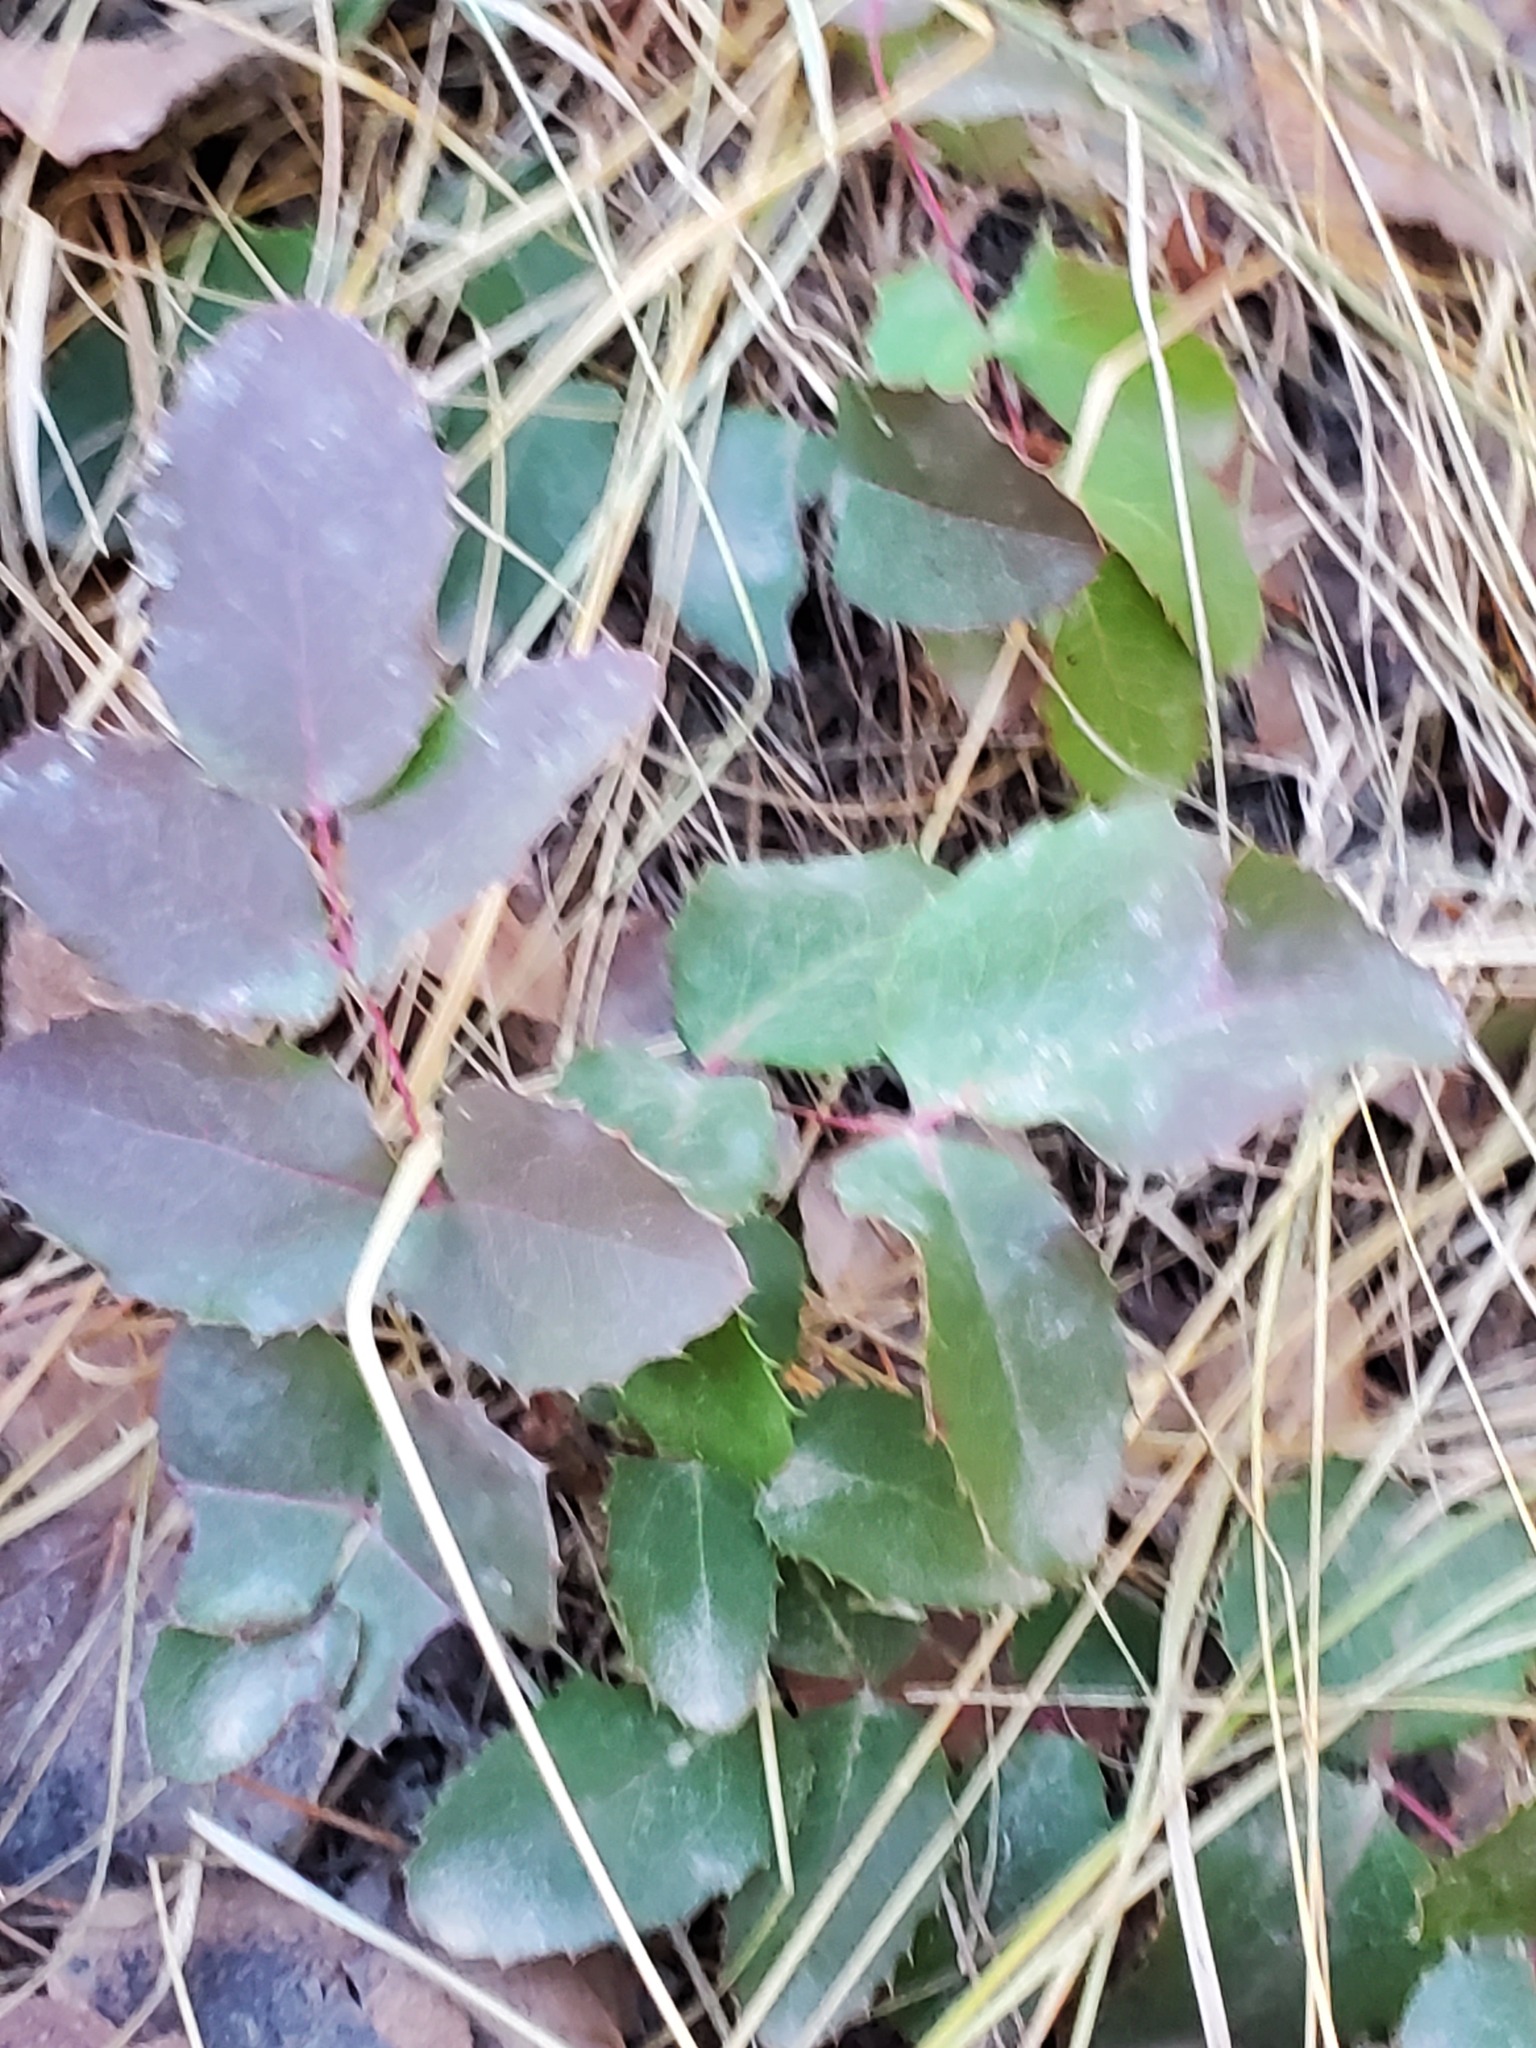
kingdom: Plantae
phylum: Tracheophyta
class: Magnoliopsida
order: Ranunculales
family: Berberidaceae
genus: Mahonia
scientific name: Mahonia repens
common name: Creeping oregon-grape
